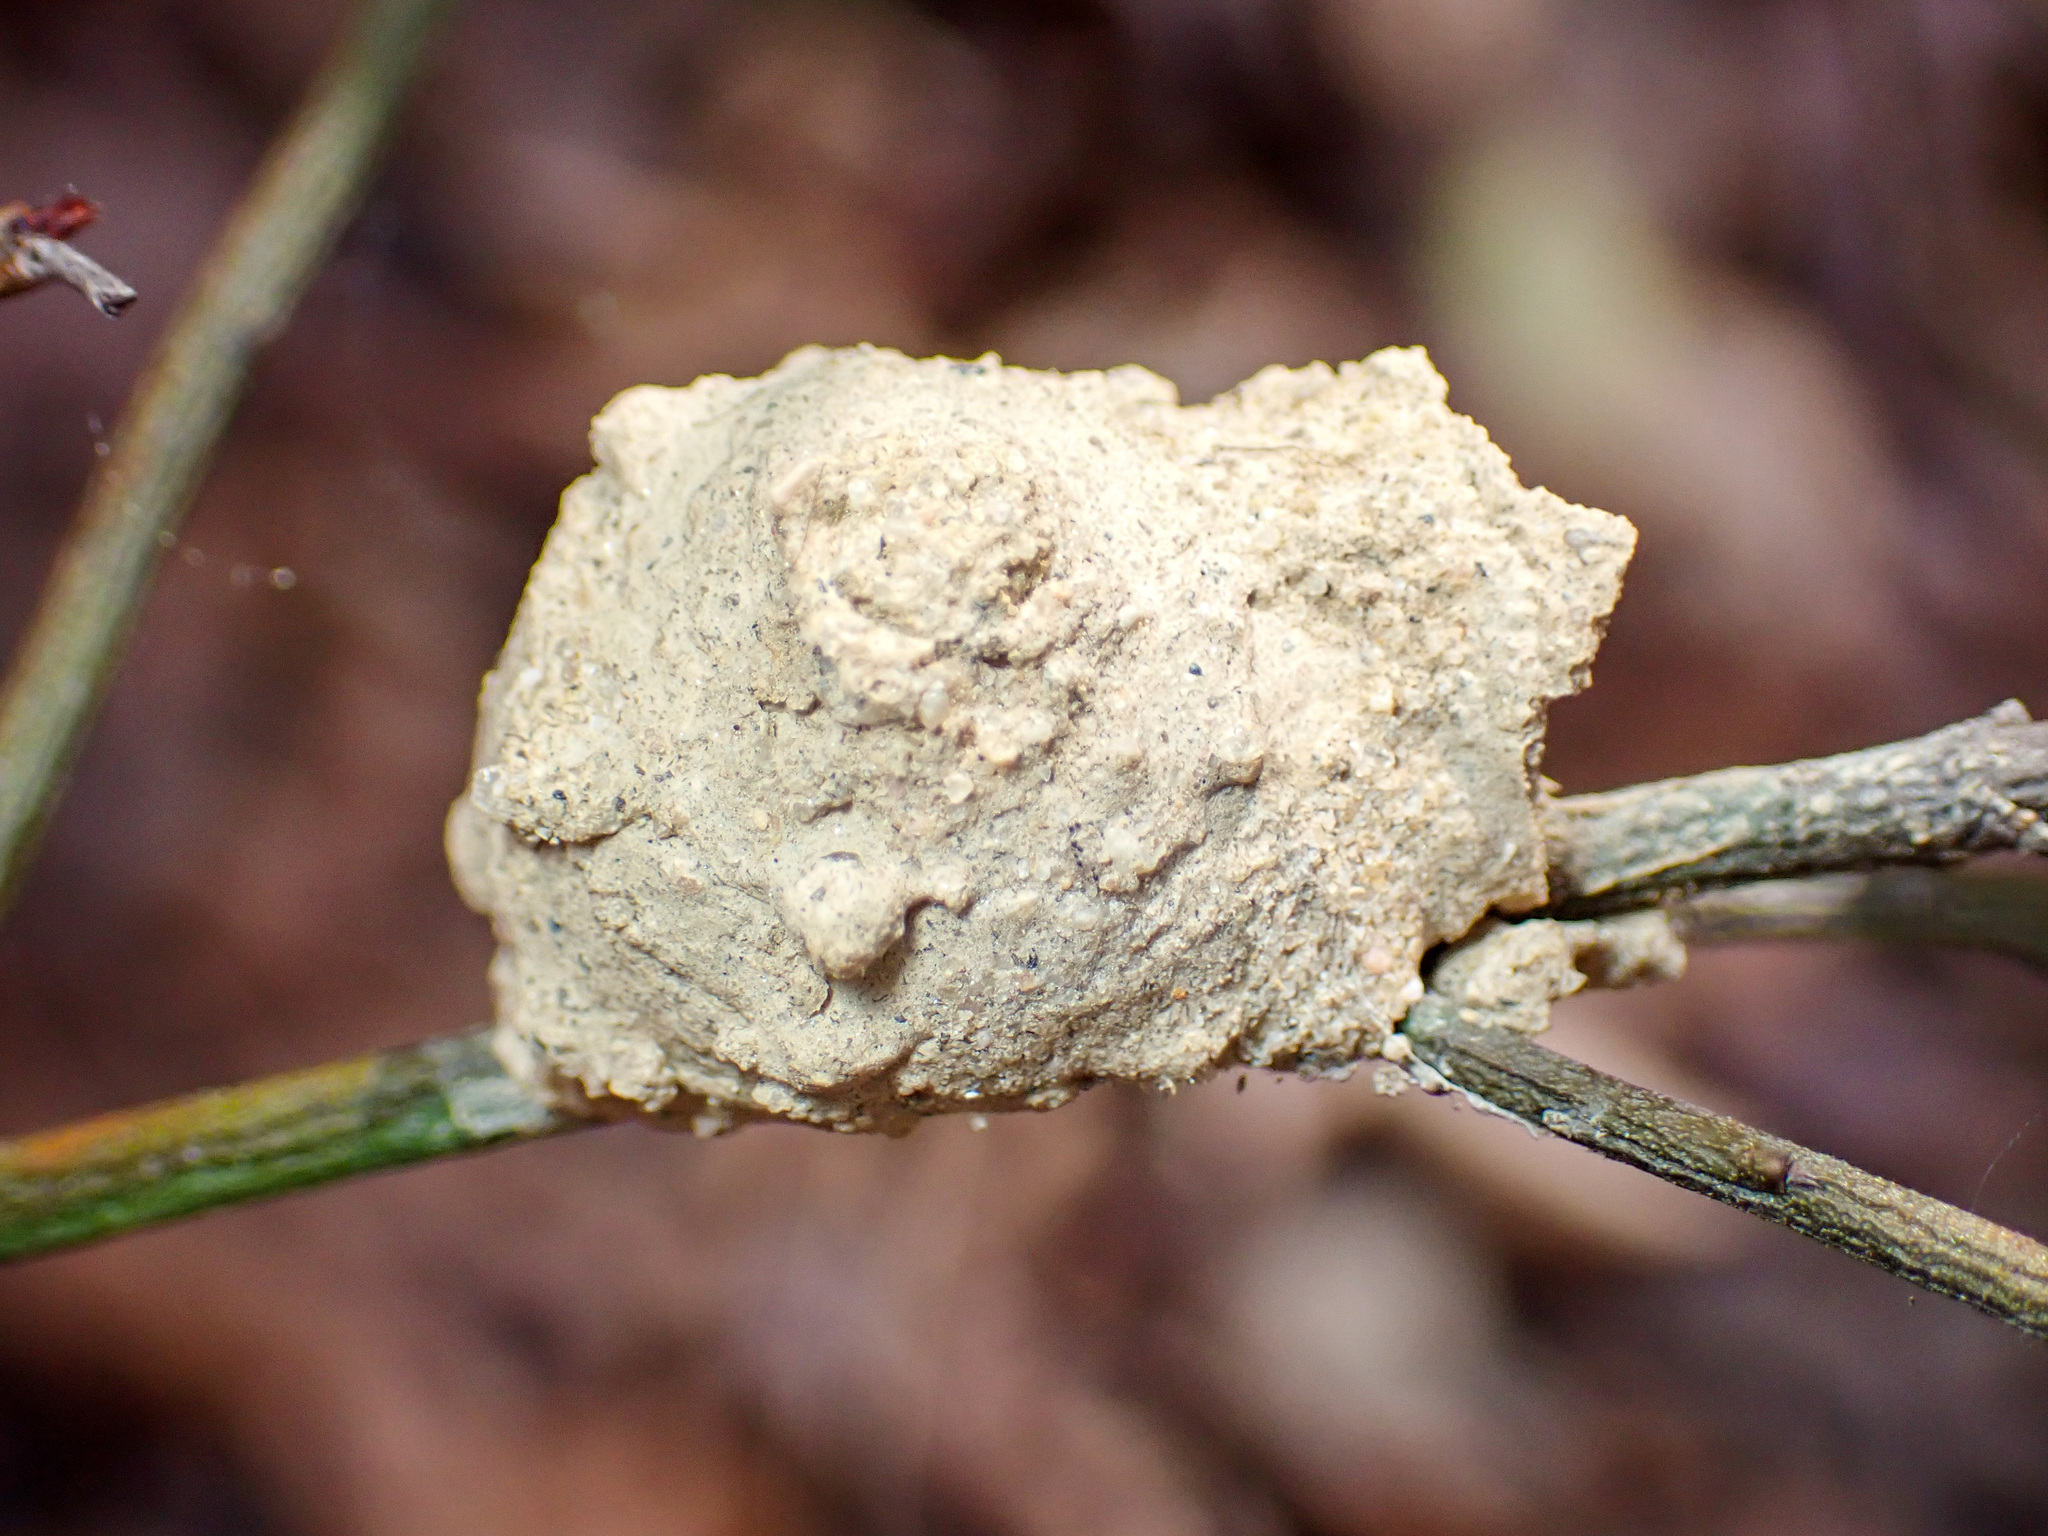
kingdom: Animalia
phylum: Arthropoda
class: Insecta
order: Hymenoptera
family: Eumenidae
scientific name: Eumenidae
